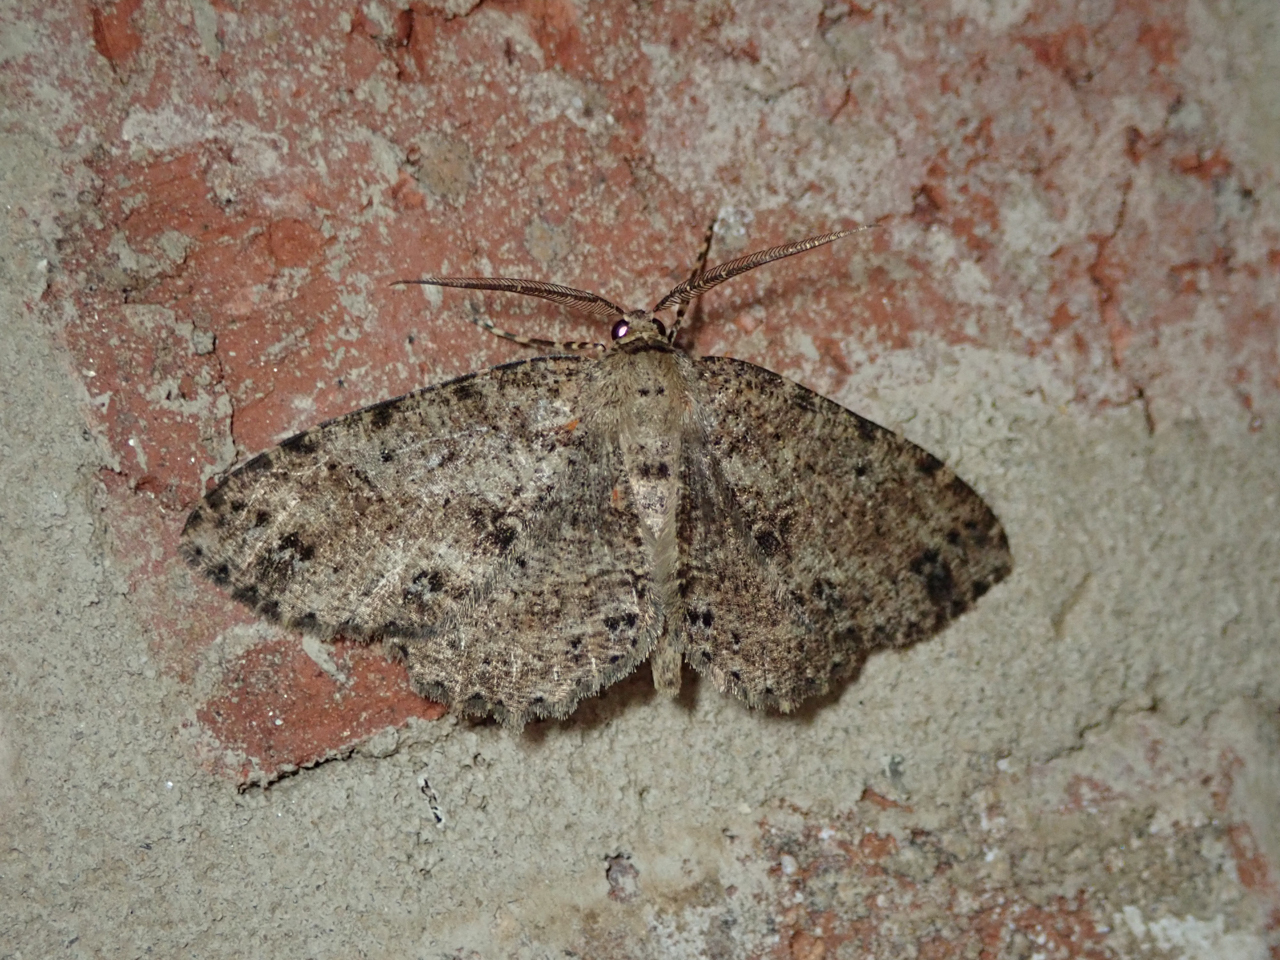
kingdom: Animalia
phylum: Arthropoda
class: Insecta
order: Lepidoptera
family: Geometridae
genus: Melanolophia
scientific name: Melanolophia canadaria
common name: Canadian melanolophia
